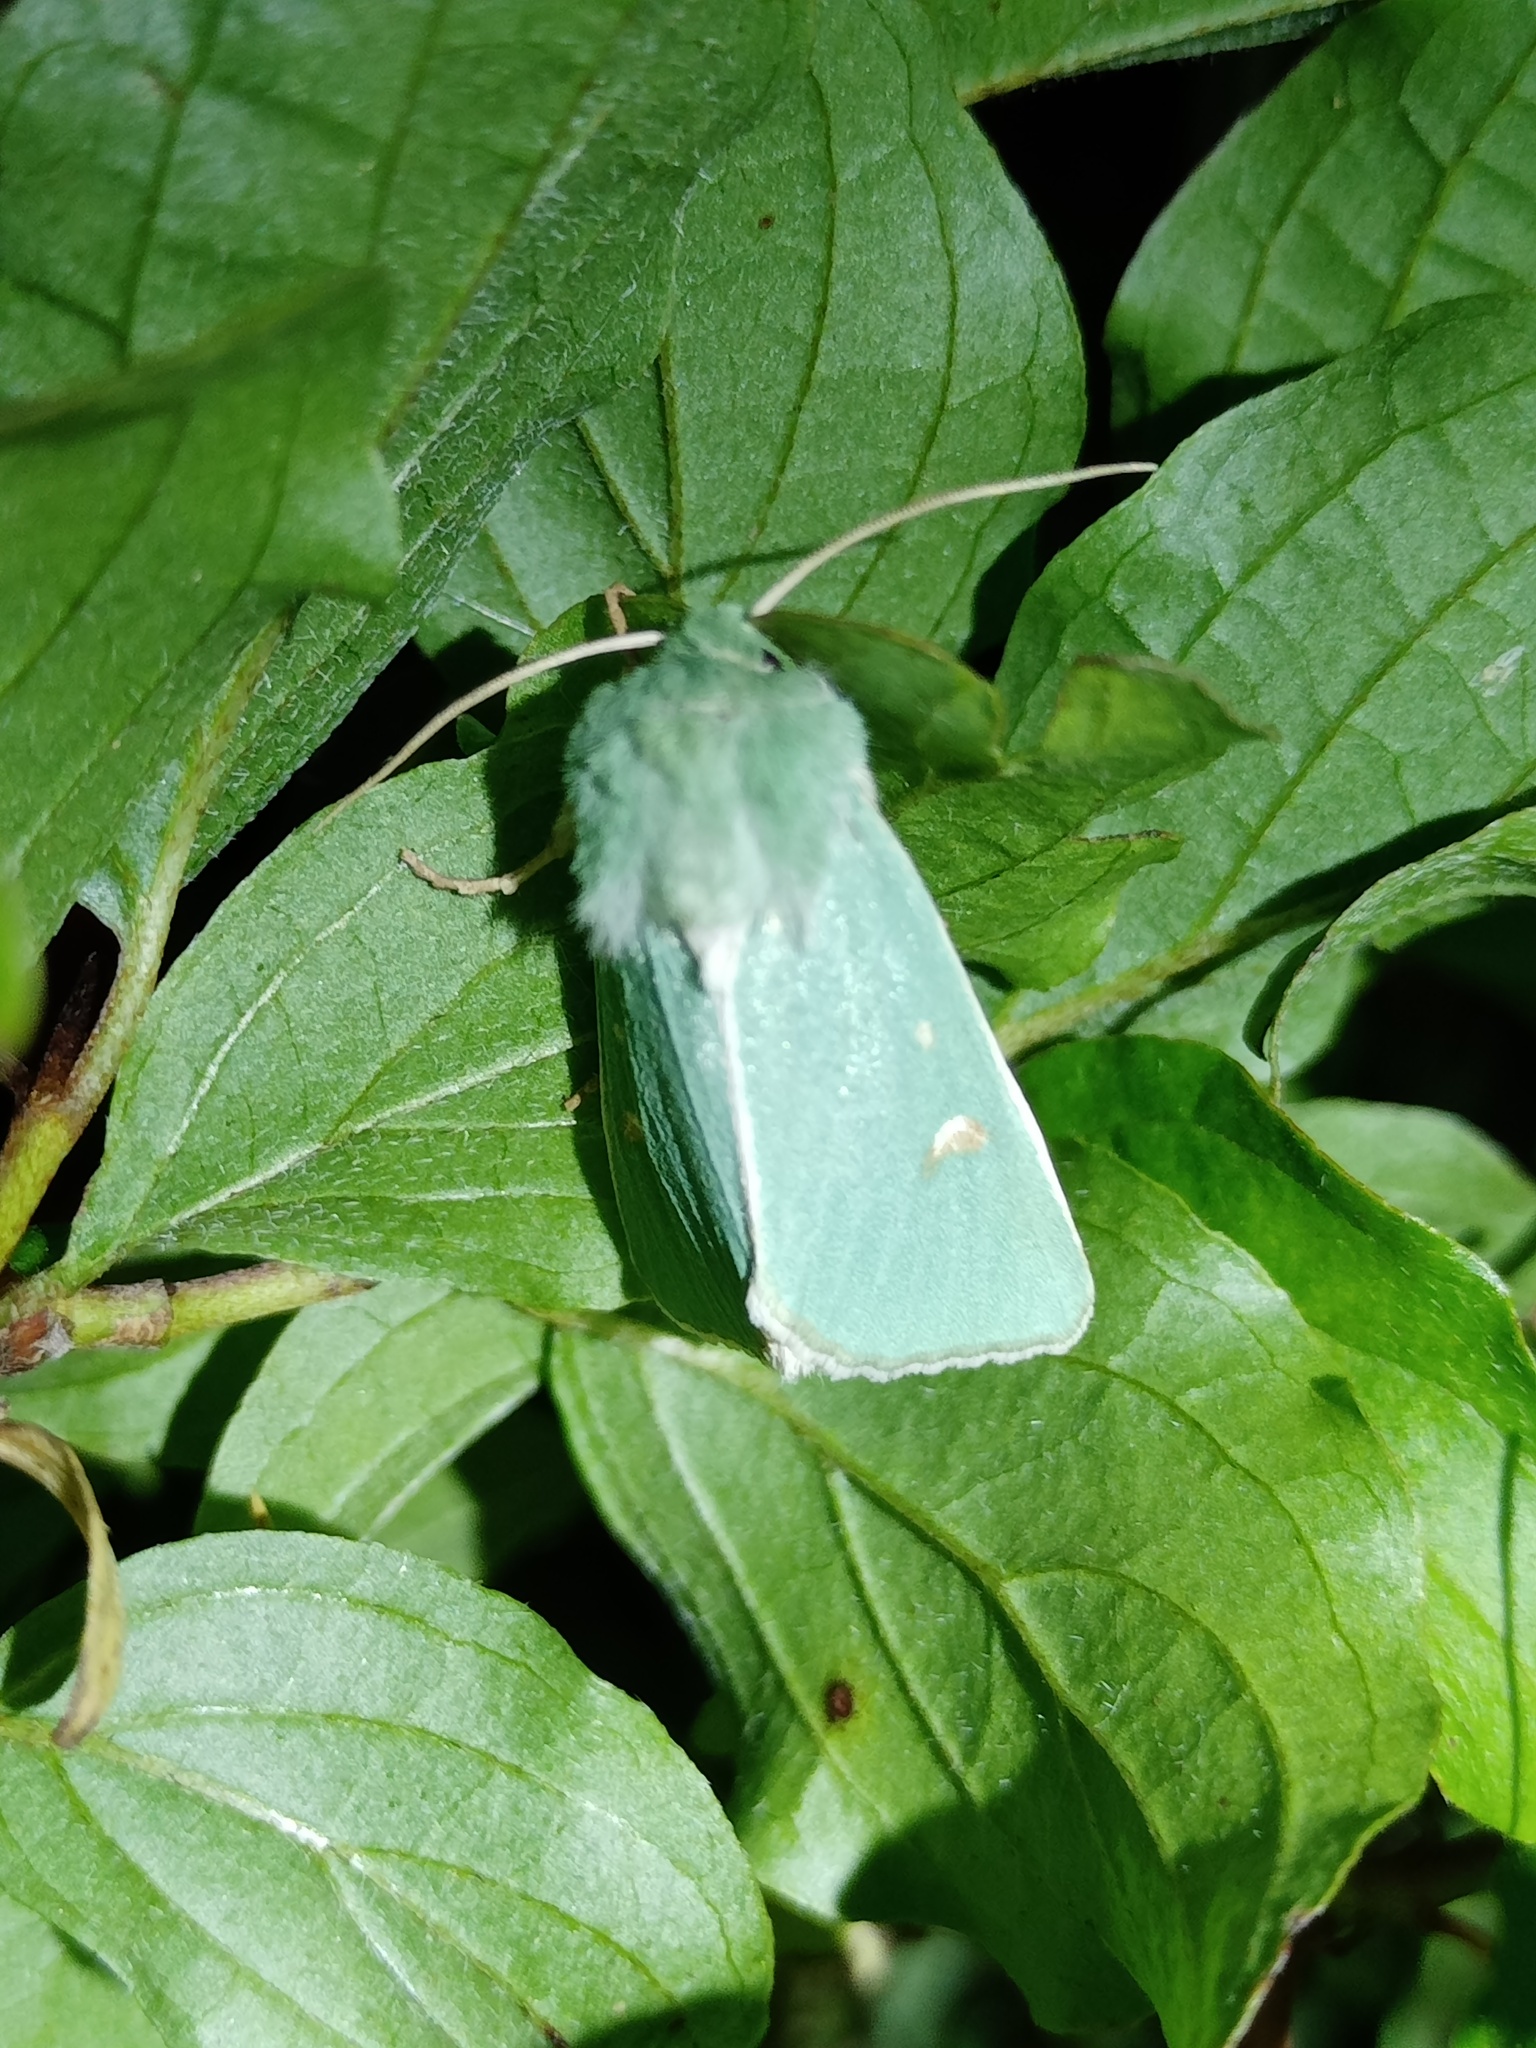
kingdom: Animalia
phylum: Arthropoda
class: Insecta
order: Lepidoptera
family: Noctuidae
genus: Calamia
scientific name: Calamia tridens
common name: Burren green
